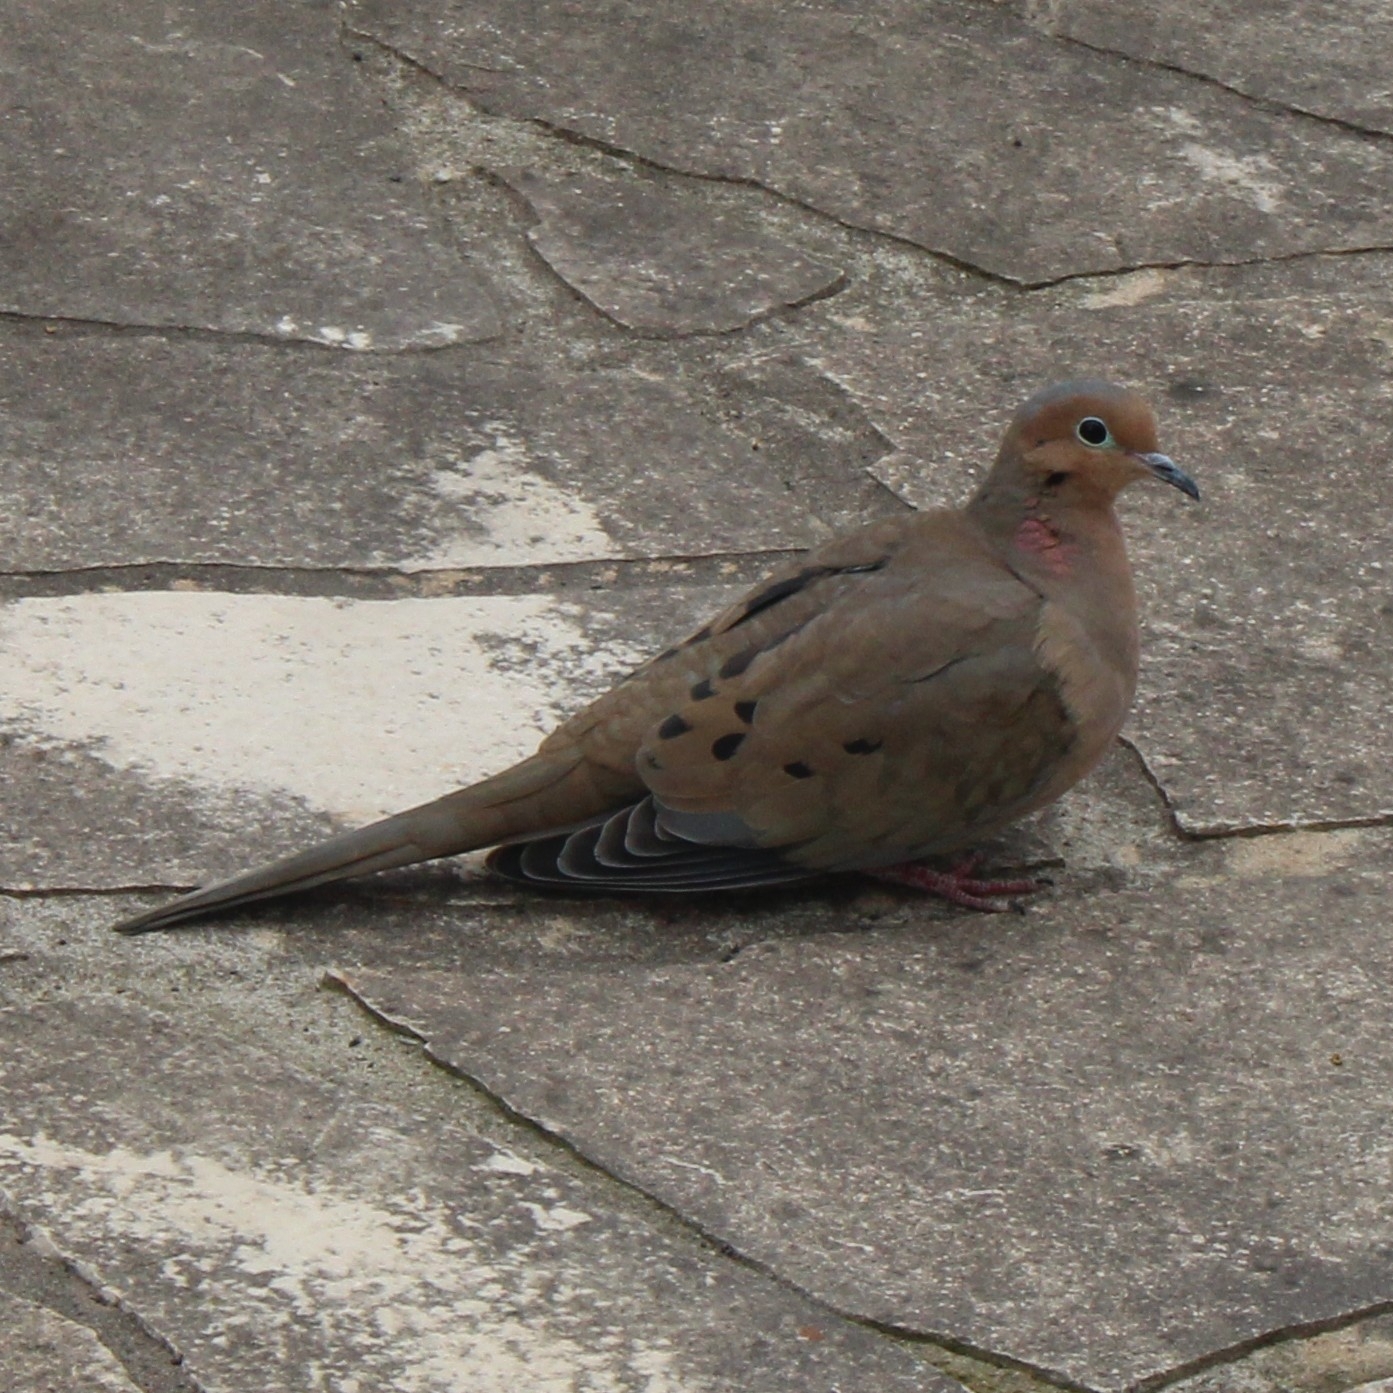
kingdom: Animalia
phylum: Chordata
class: Aves
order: Columbiformes
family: Columbidae
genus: Zenaida
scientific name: Zenaida macroura
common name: Mourning dove
